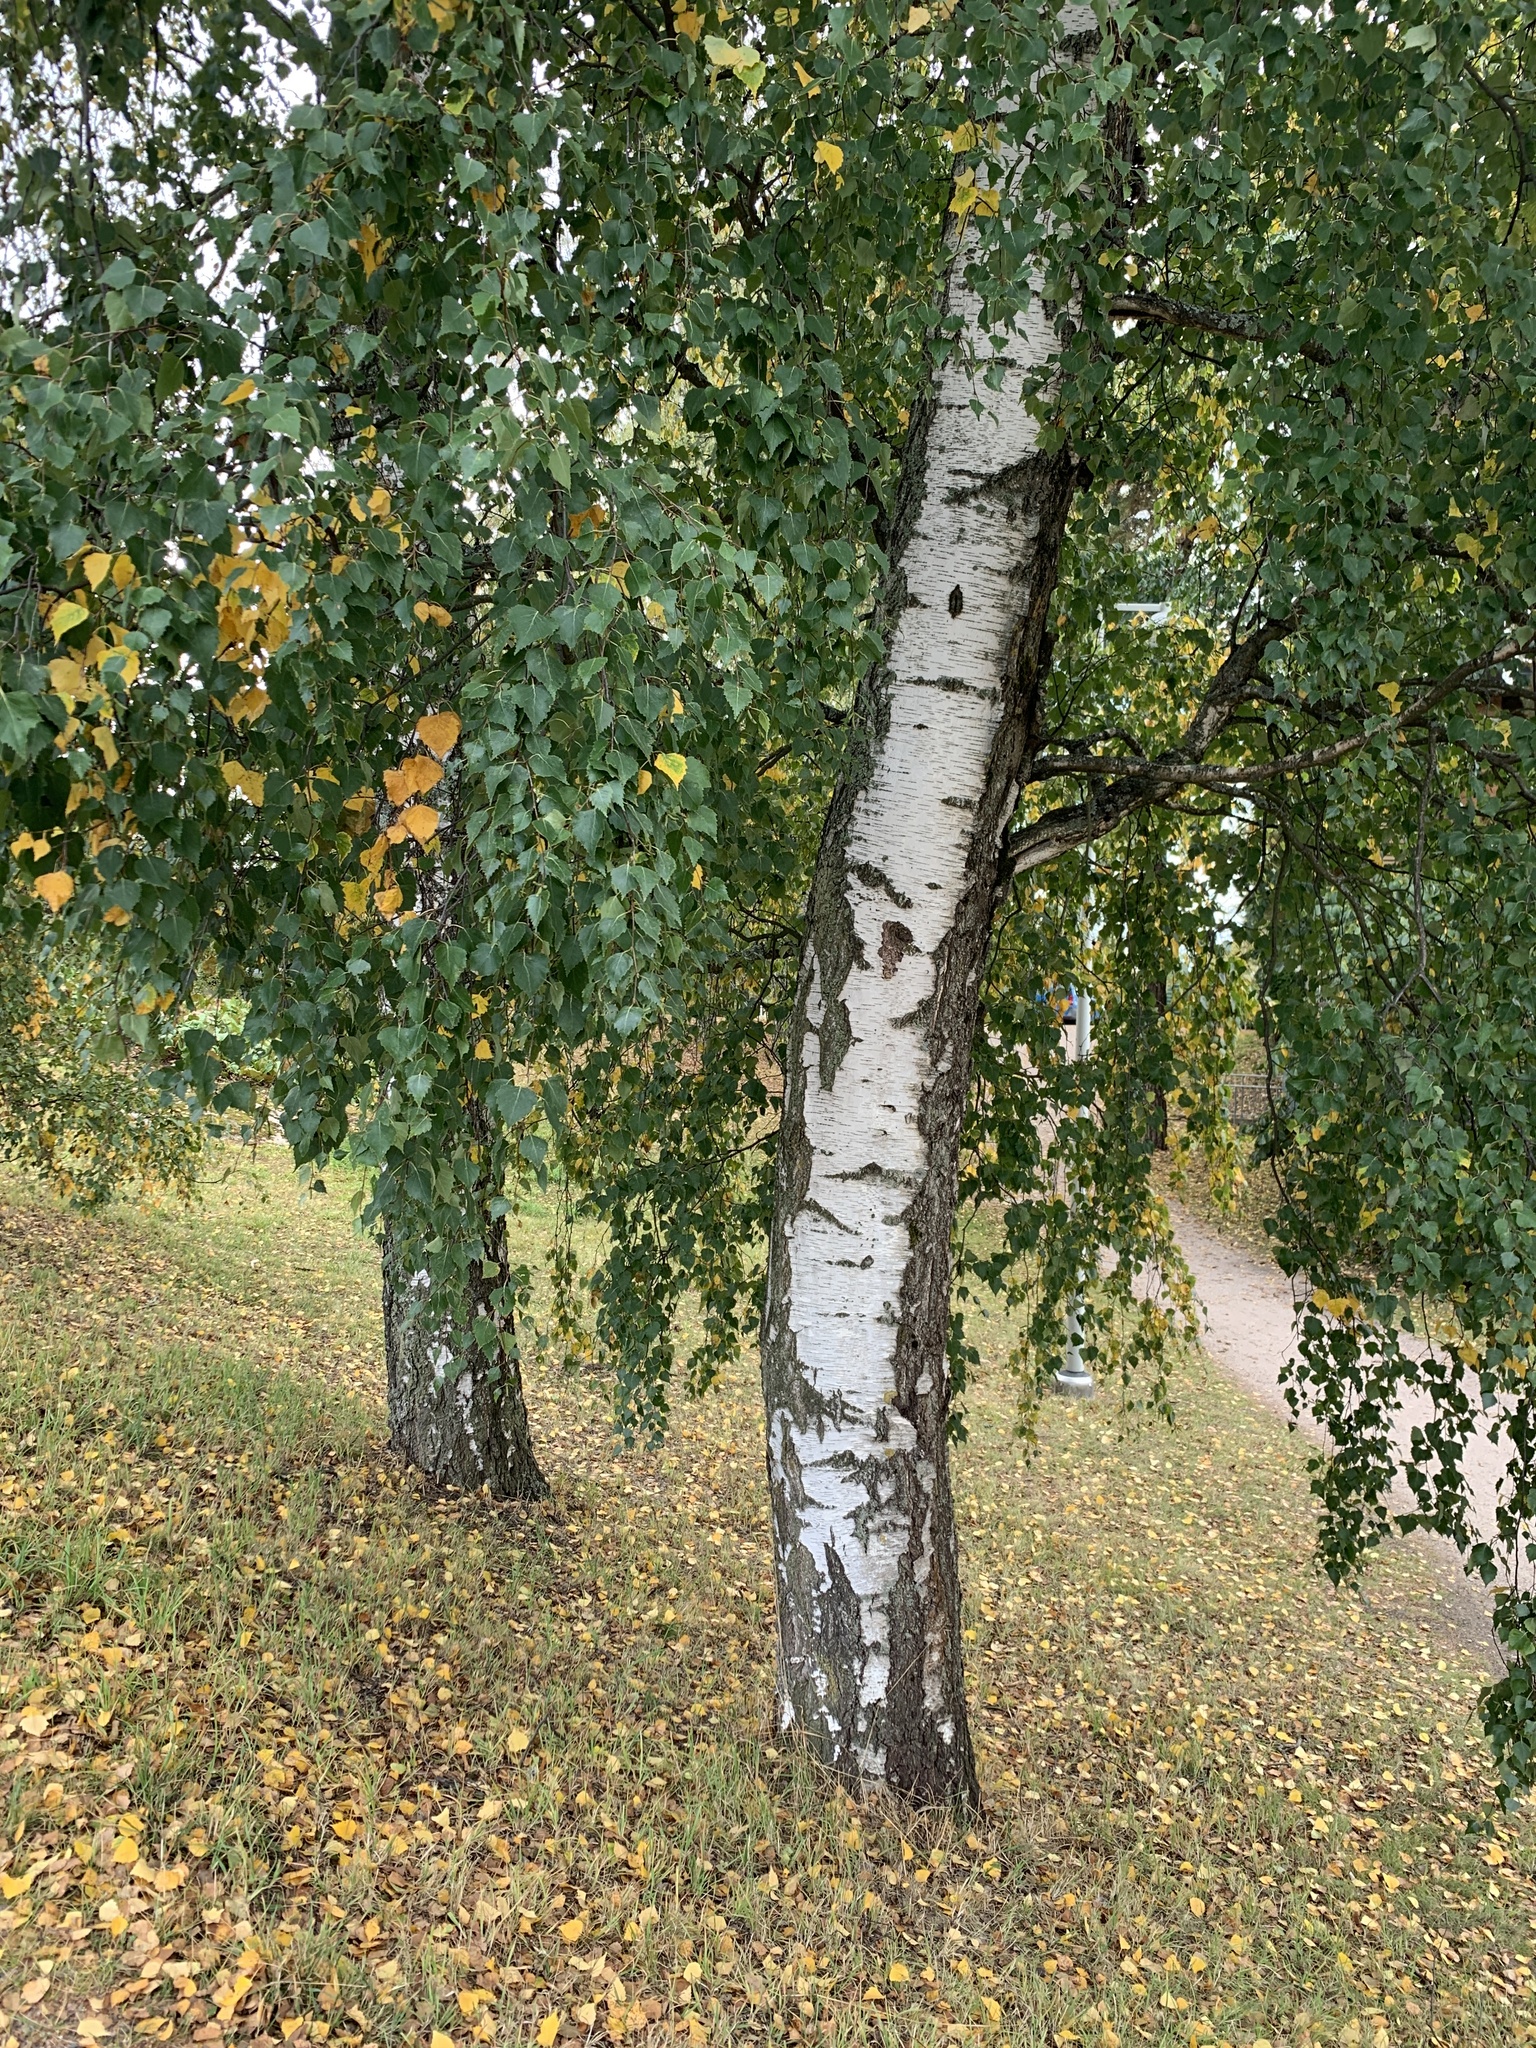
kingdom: Plantae
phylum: Tracheophyta
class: Magnoliopsida
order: Fagales
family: Betulaceae
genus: Betula
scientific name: Betula pendula
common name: Silver birch
